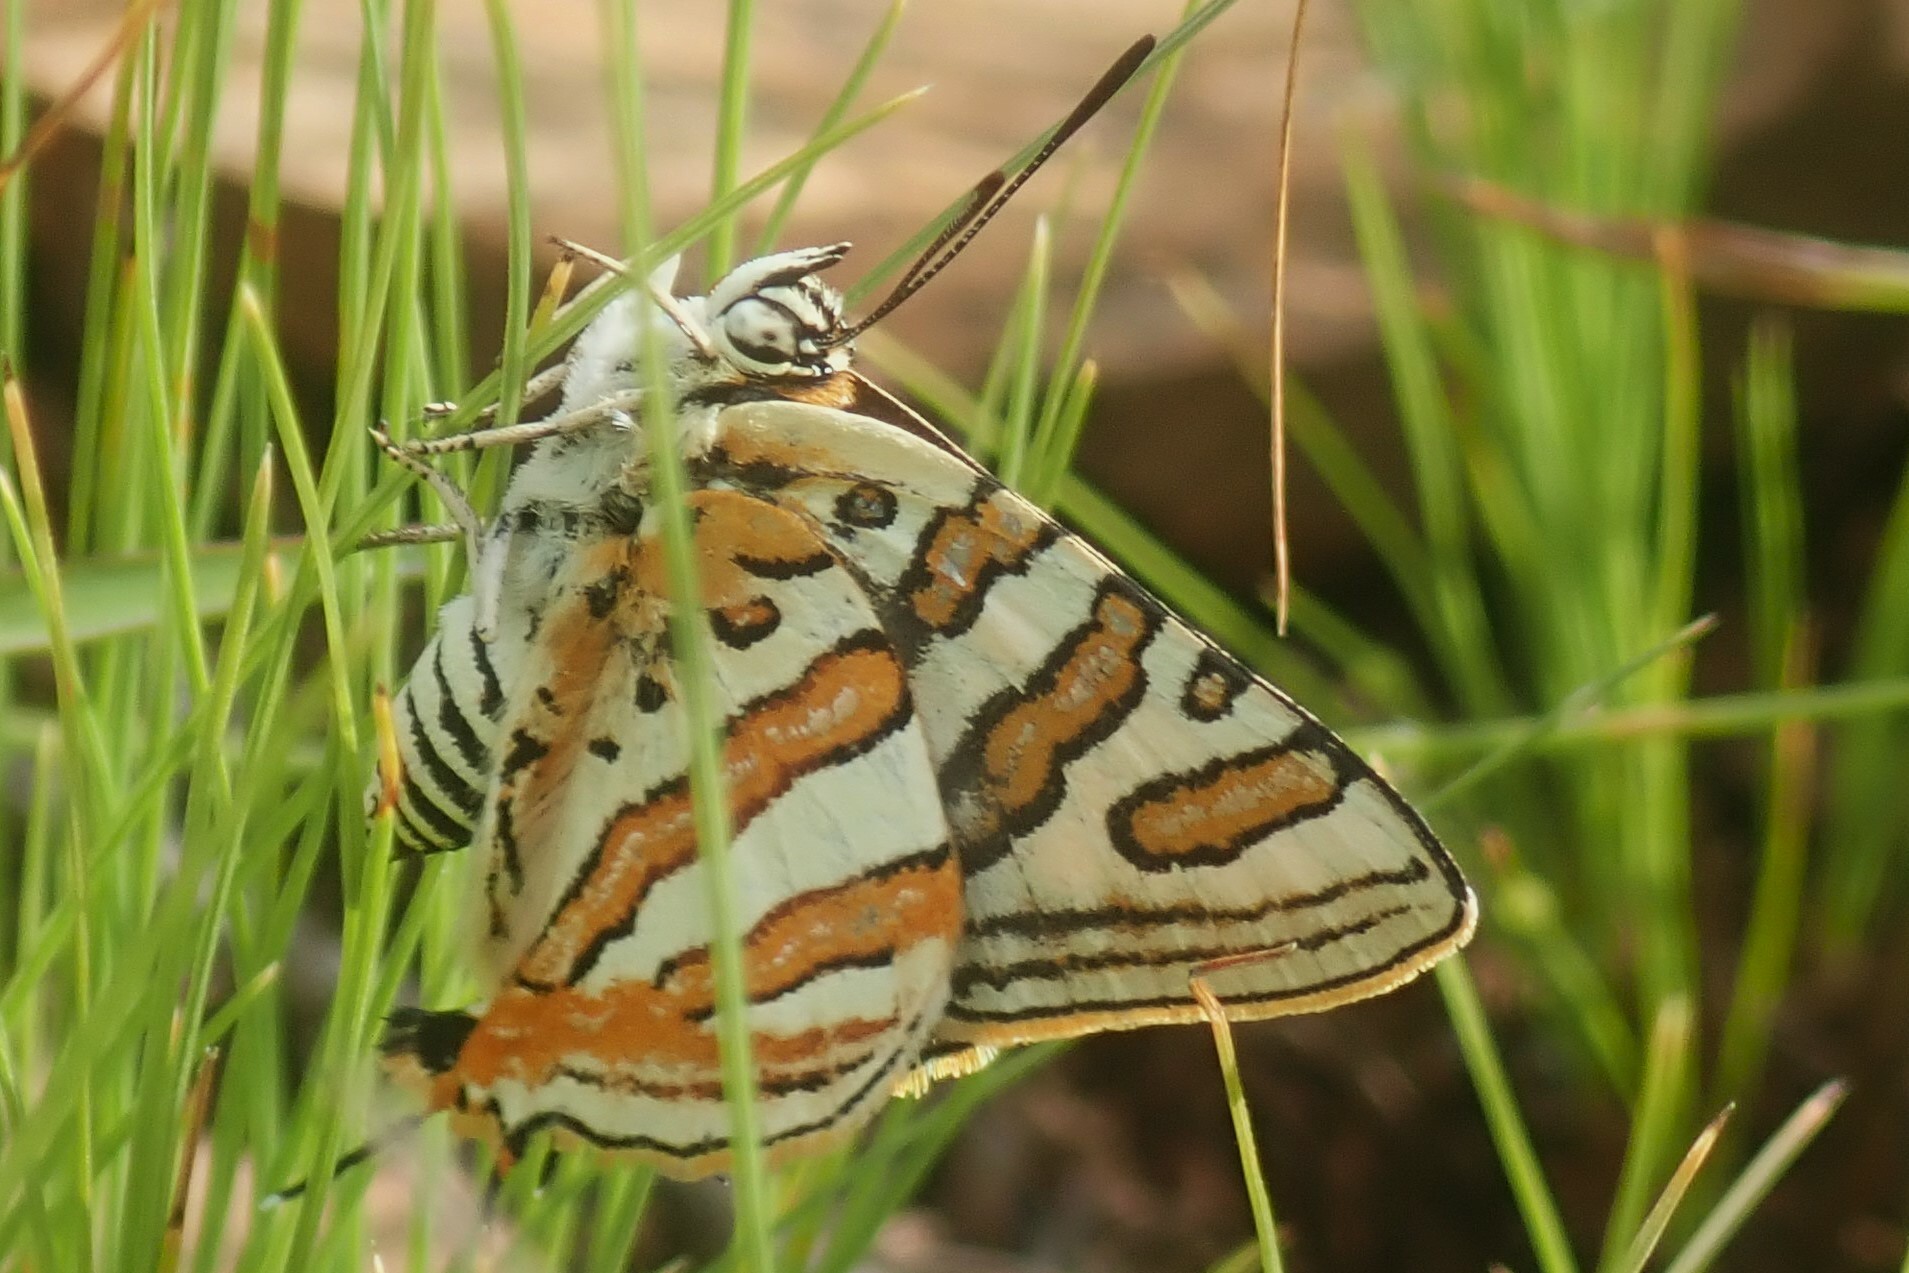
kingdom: Animalia
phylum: Arthropoda
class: Insecta
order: Lepidoptera
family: Lycaenidae
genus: Cigaritis
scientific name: Cigaritis mozambica
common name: Mozambique bar
